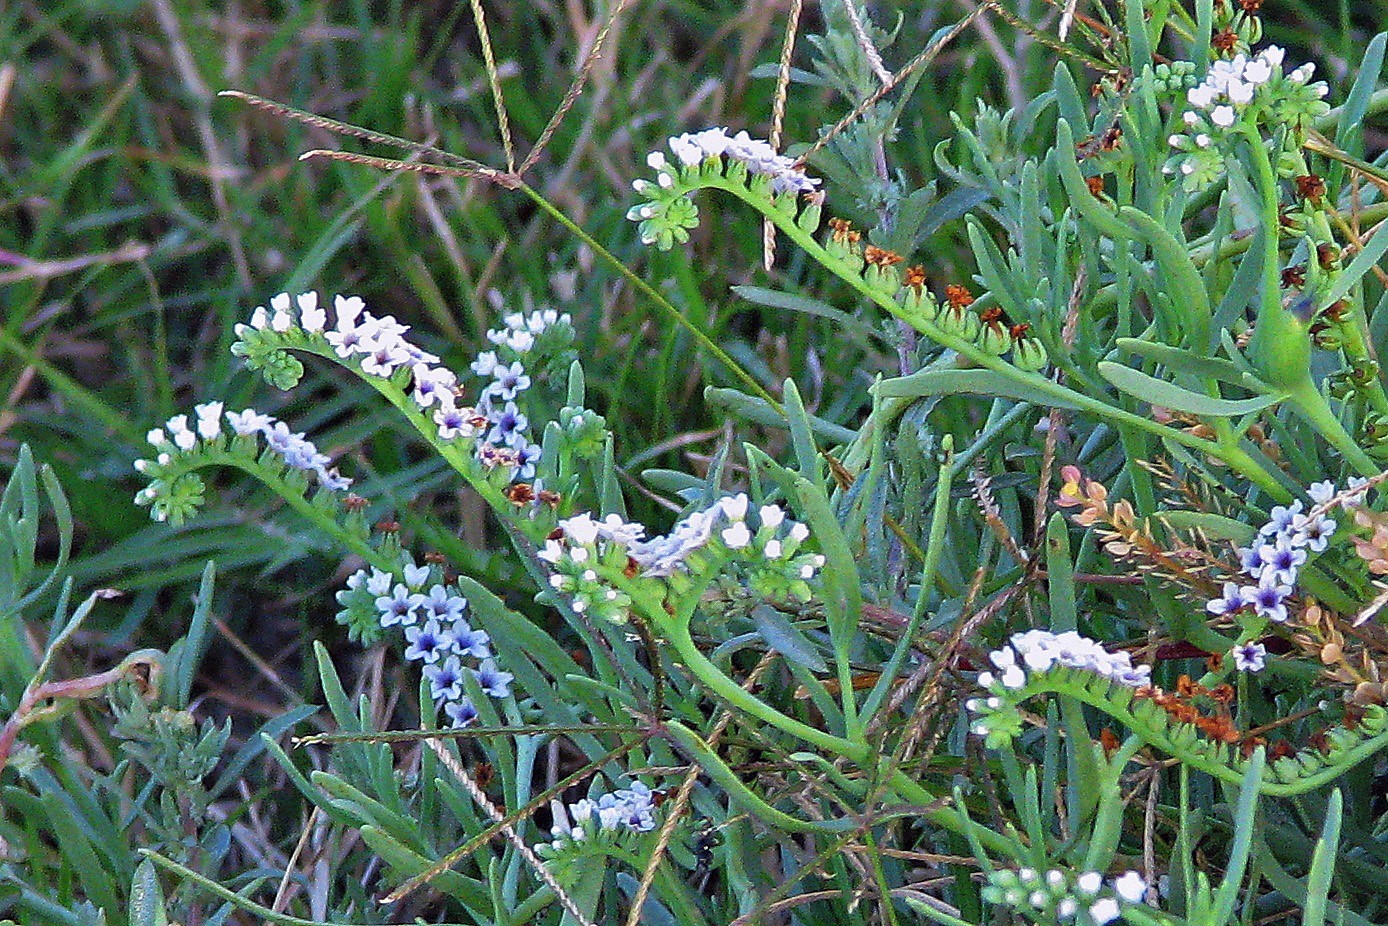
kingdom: Plantae
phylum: Tracheophyta
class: Magnoliopsida
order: Boraginales
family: Heliotropiaceae
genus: Heliotropium
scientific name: Heliotropium curassavicum
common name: Seaside heliotrope
